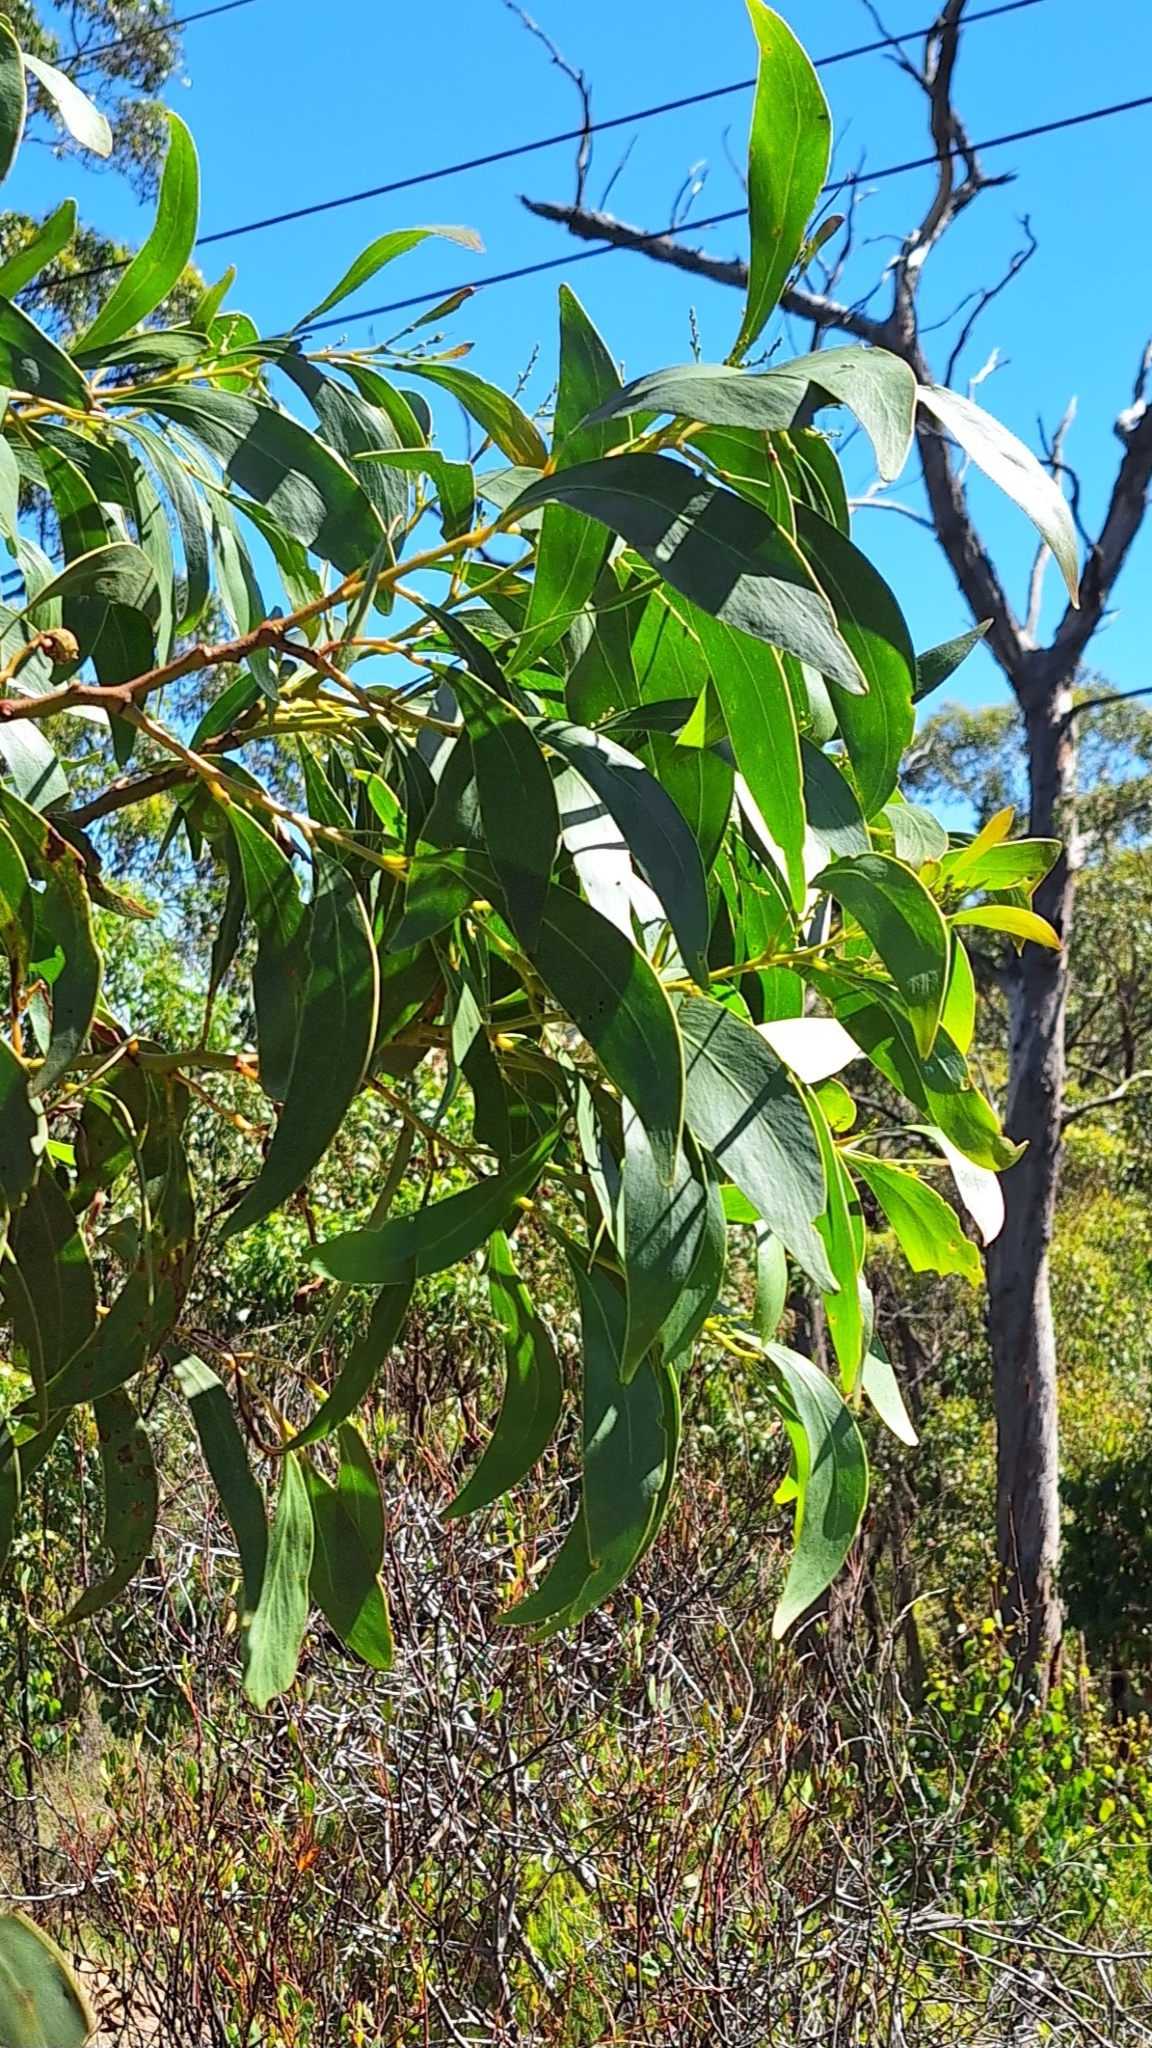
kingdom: Plantae
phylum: Tracheophyta
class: Magnoliopsida
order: Fabales
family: Fabaceae
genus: Acacia
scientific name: Acacia pycnantha
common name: Golden wattle
